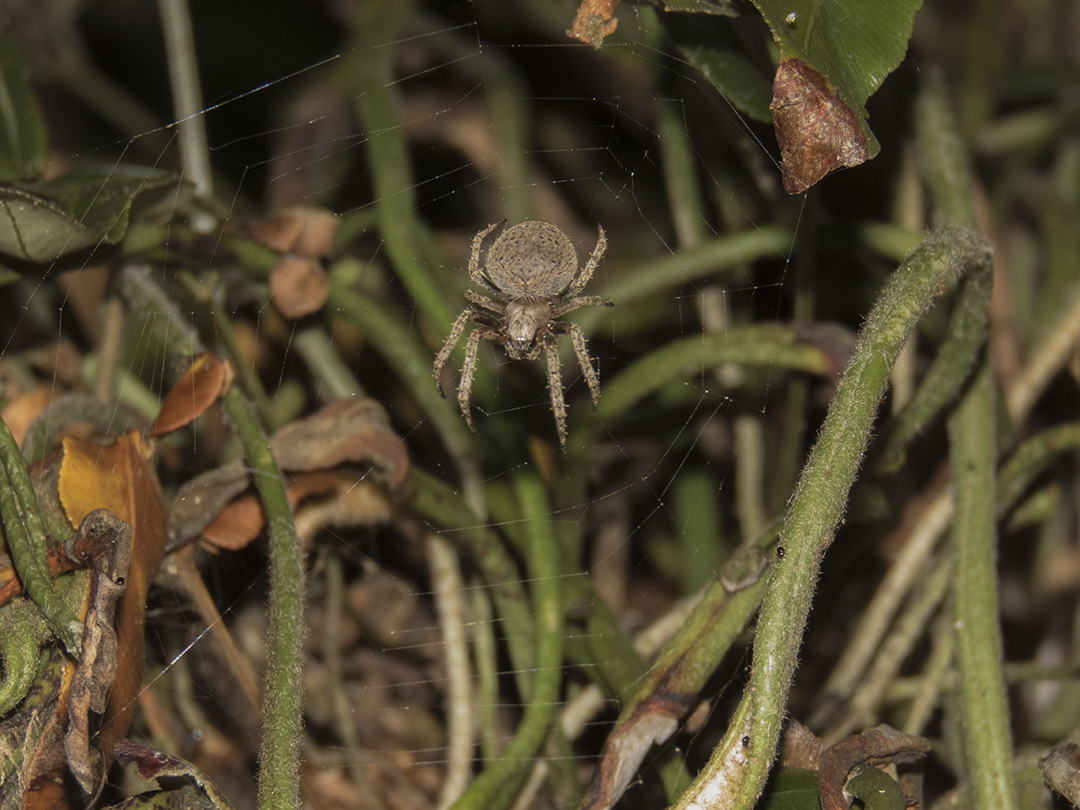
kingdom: Animalia
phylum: Arthropoda
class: Arachnida
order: Araneae
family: Araneidae
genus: Neoscona
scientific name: Neoscona punctigera
